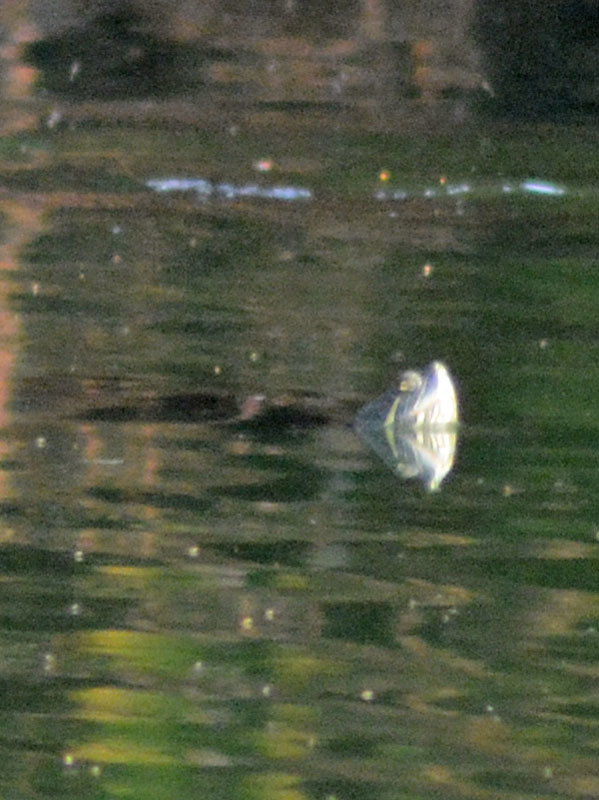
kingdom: Animalia
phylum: Chordata
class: Testudines
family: Emydidae
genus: Trachemys
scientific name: Trachemys scripta
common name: Slider
